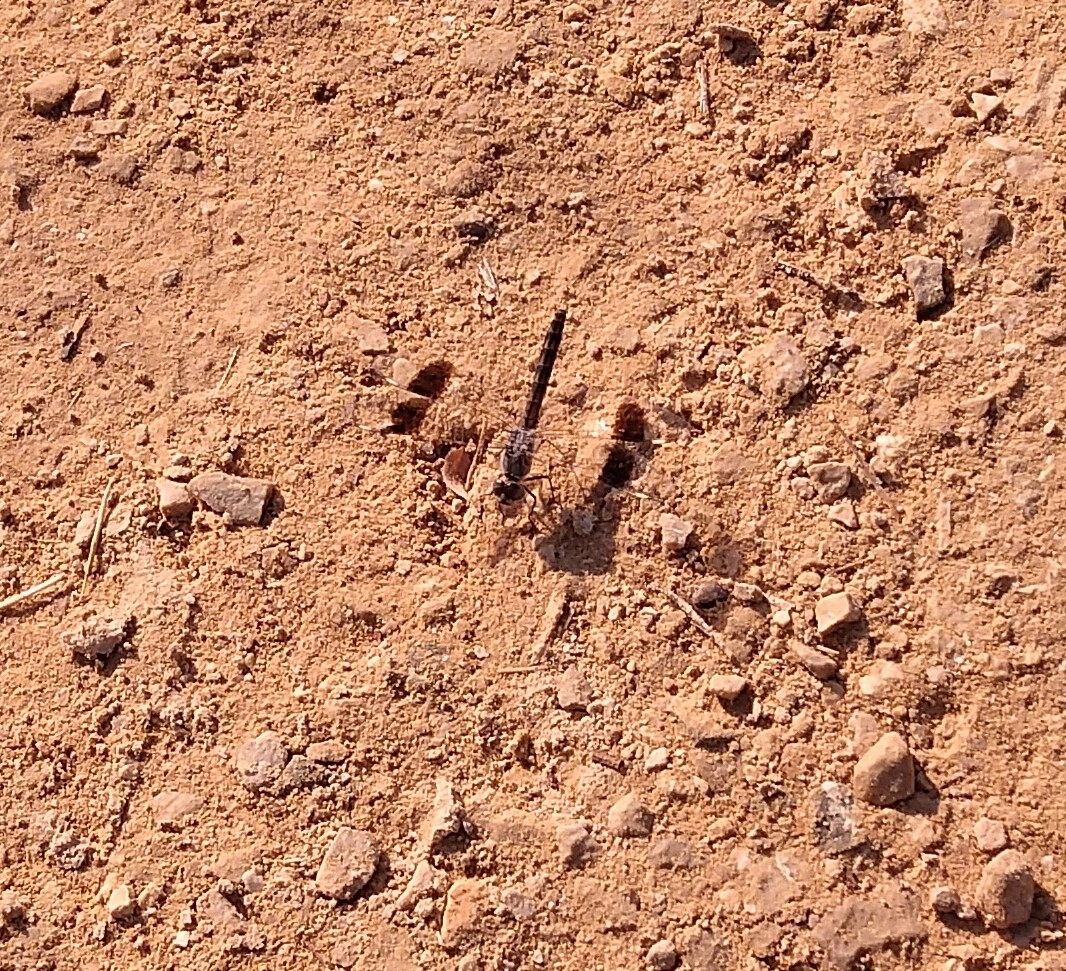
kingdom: Animalia
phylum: Arthropoda
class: Insecta
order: Odonata
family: Libellulidae
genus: Brachythemis
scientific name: Brachythemis impartita
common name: Banded groundling
